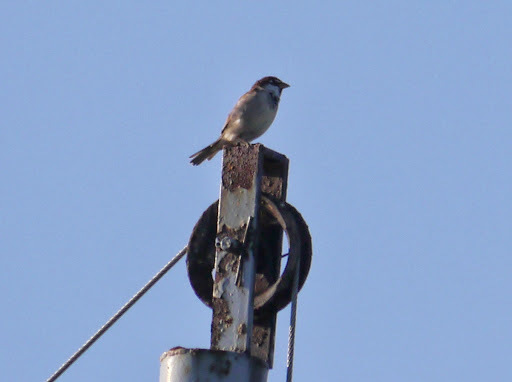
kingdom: Animalia
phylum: Chordata
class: Aves
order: Passeriformes
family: Passeridae
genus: Passer
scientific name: Passer italiae
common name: Italian sparrow
